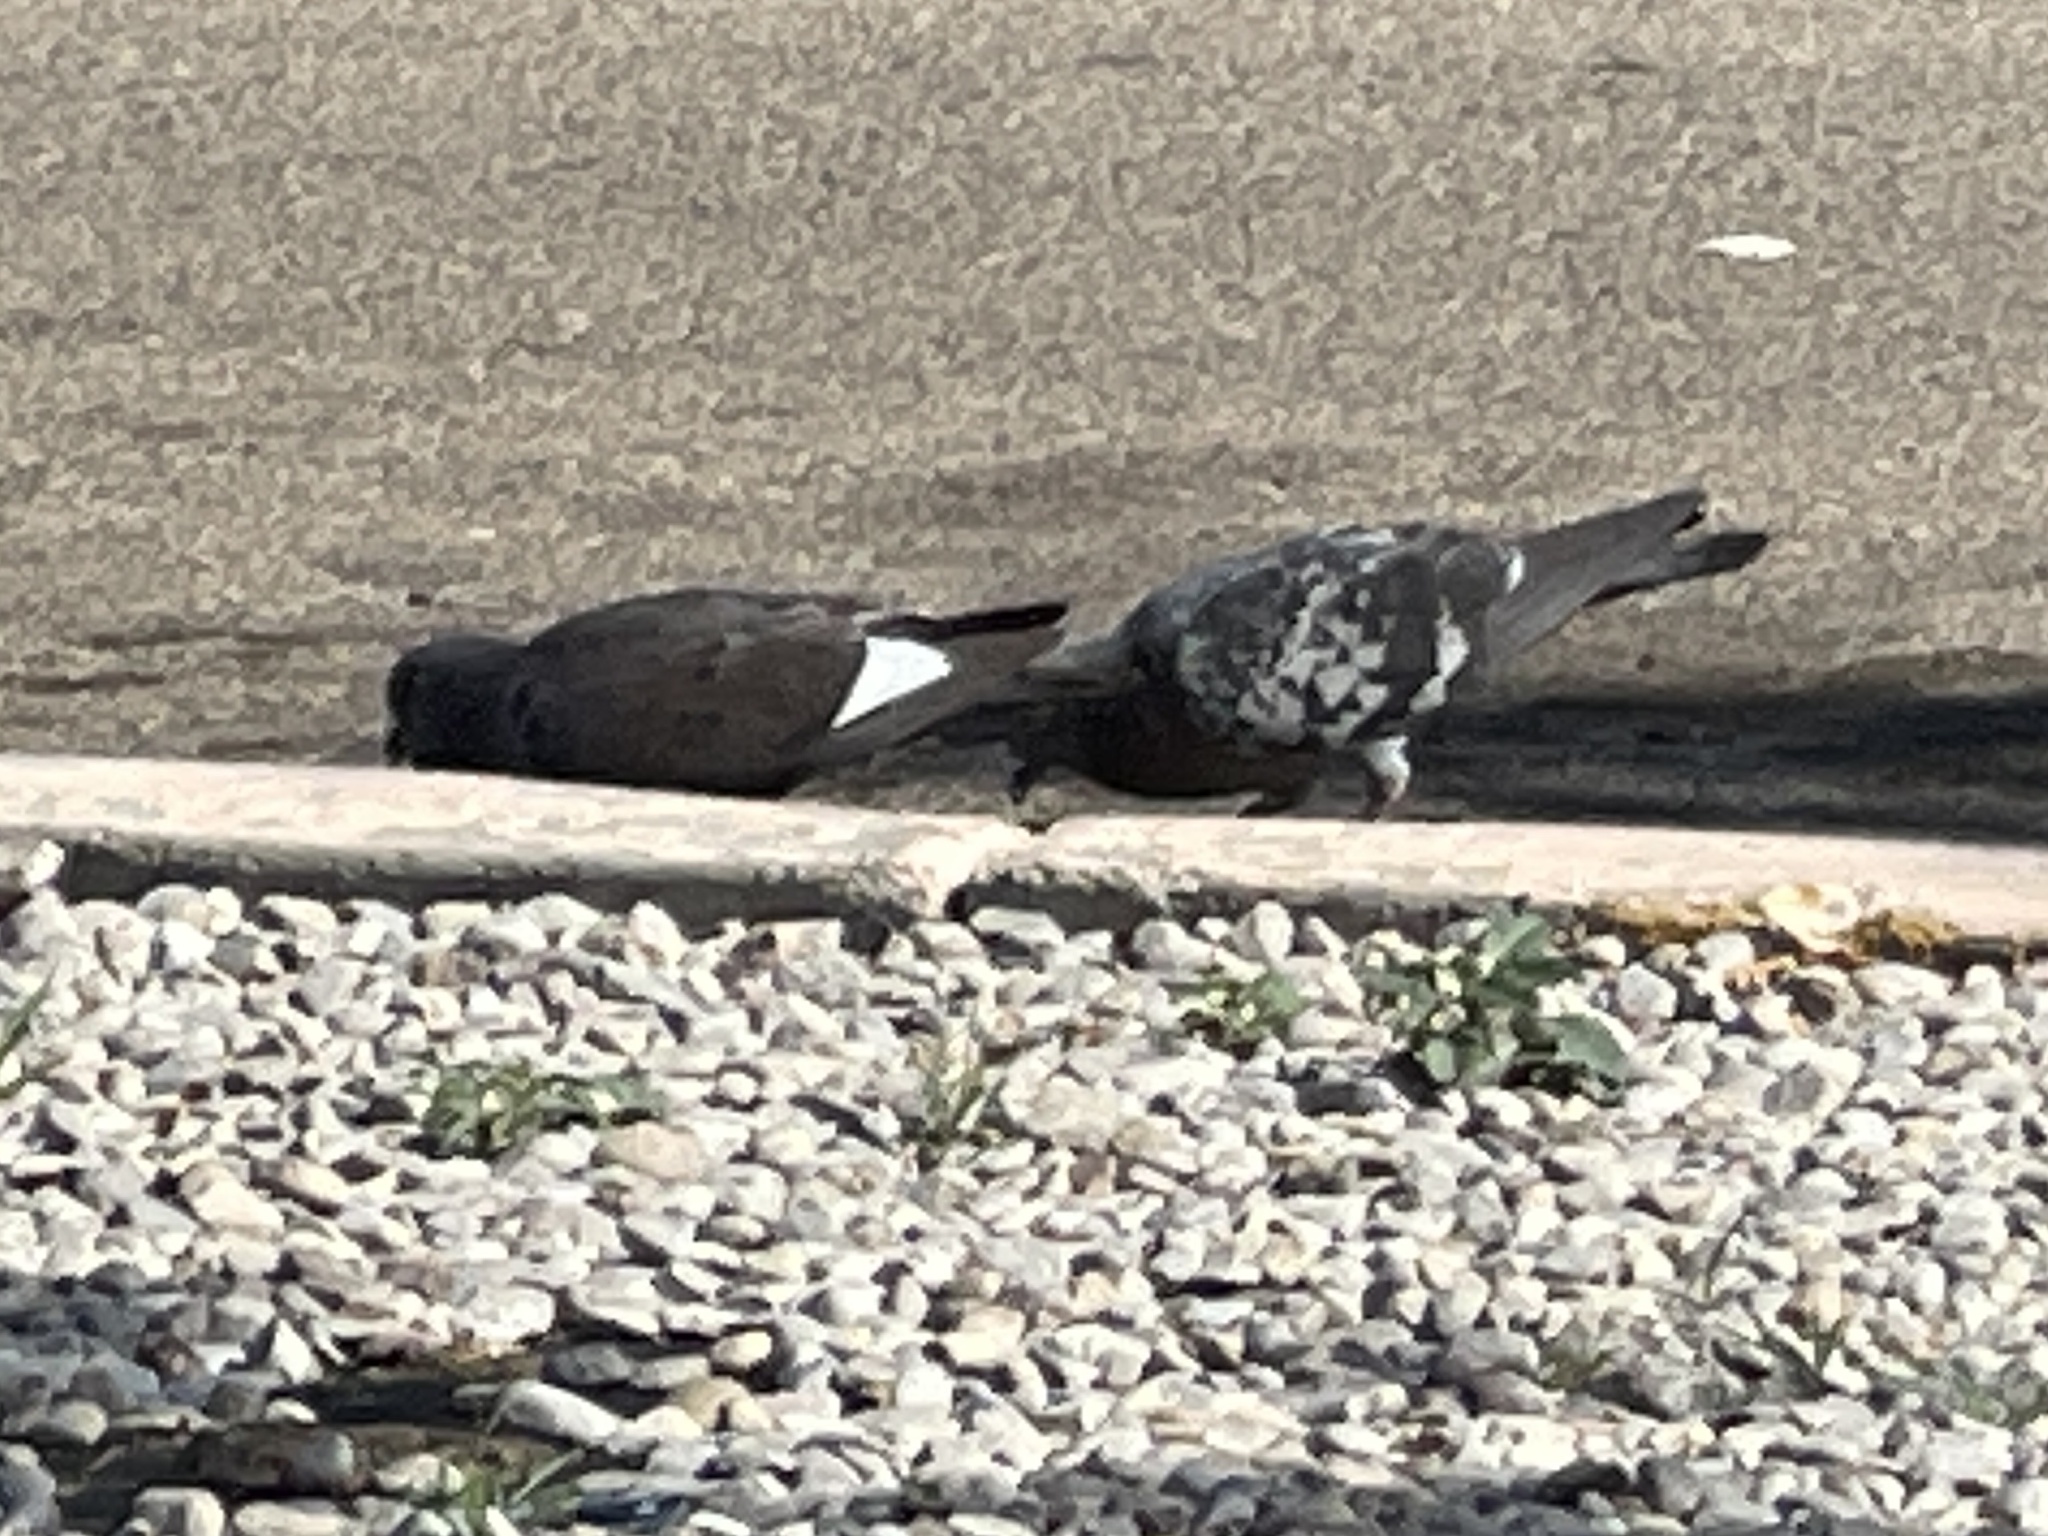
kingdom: Animalia
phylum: Chordata
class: Aves
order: Columbiformes
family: Columbidae
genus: Columba
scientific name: Columba livia
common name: Rock pigeon
